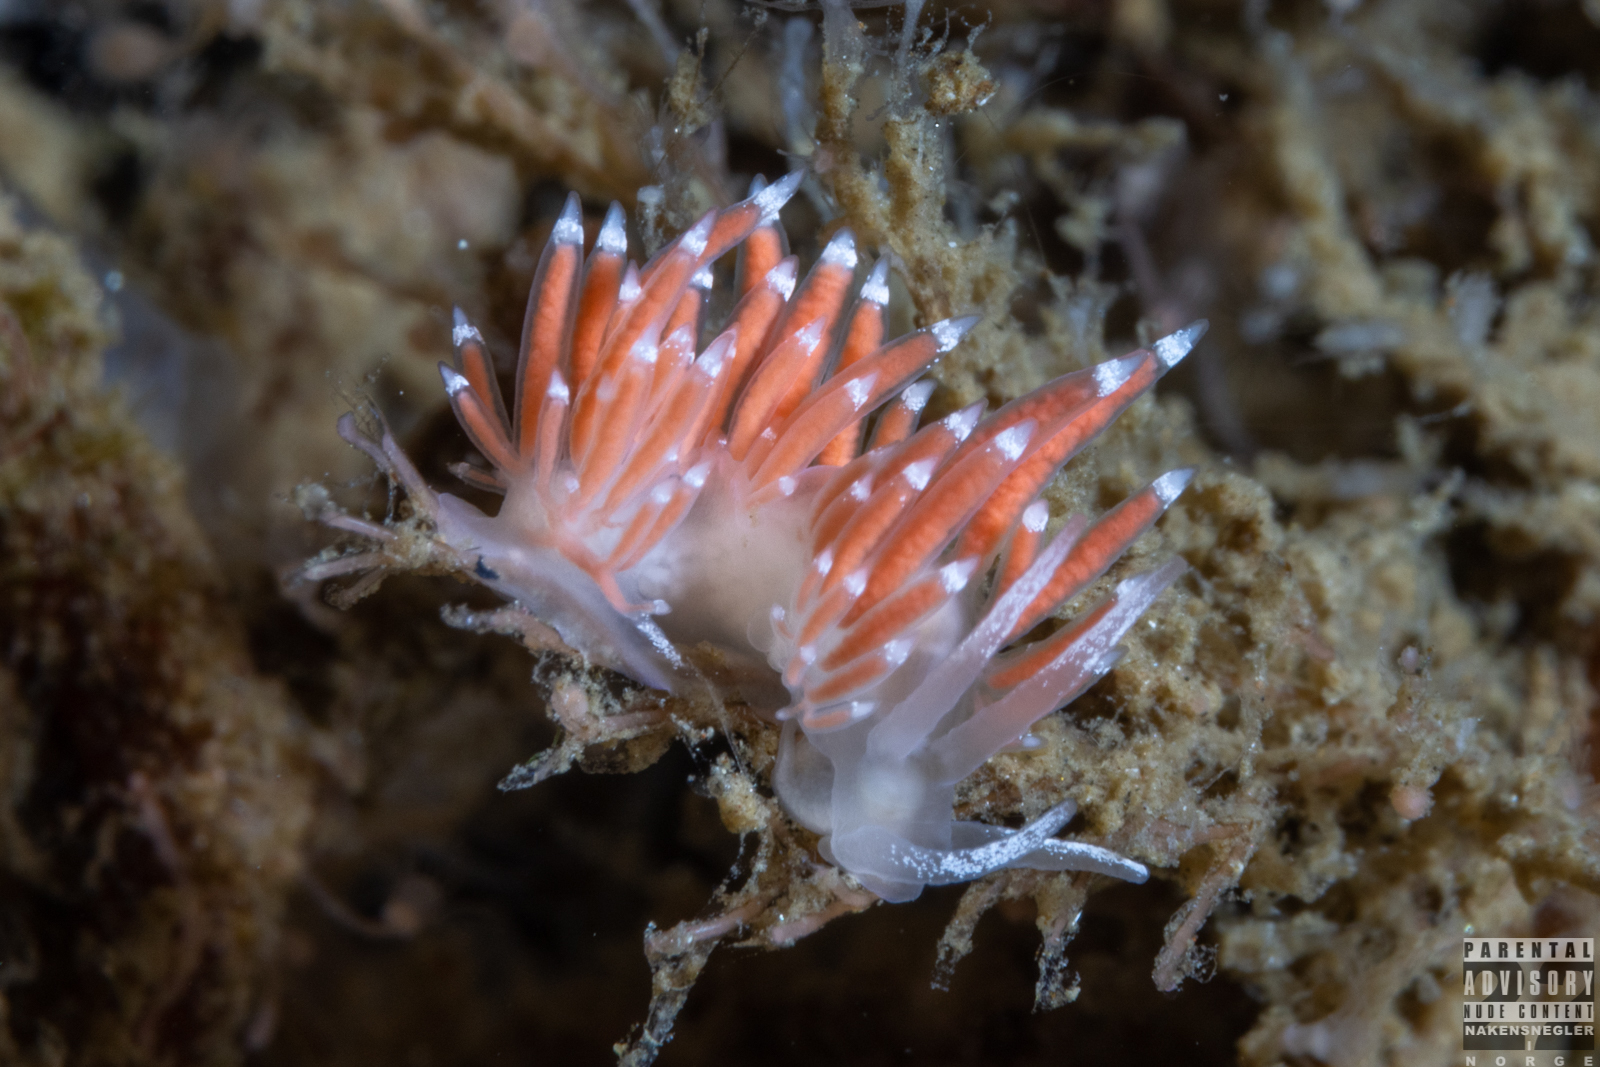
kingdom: Animalia
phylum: Mollusca
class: Gastropoda
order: Nudibranchia
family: Coryphellidae
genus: Coryphella
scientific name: Coryphella gracilis
